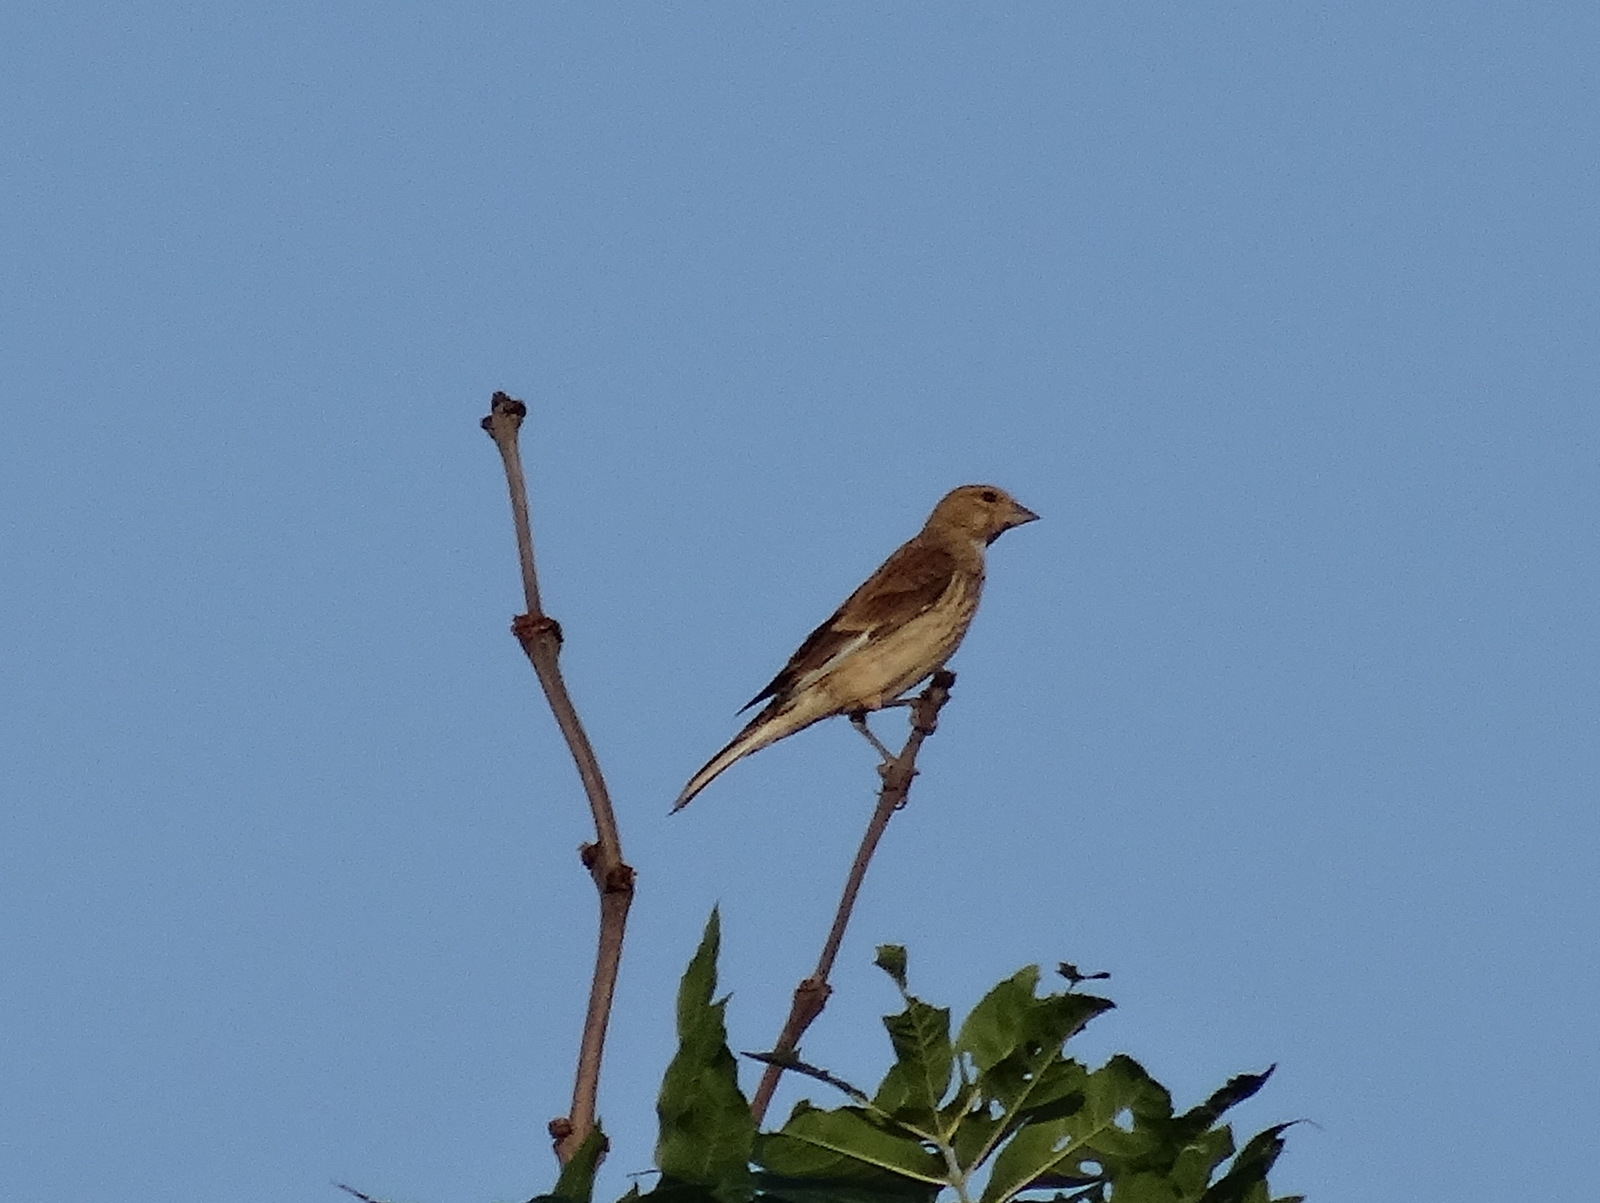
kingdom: Animalia
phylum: Chordata
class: Aves
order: Passeriformes
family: Fringillidae
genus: Linaria
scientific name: Linaria cannabina
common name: Common linnet
